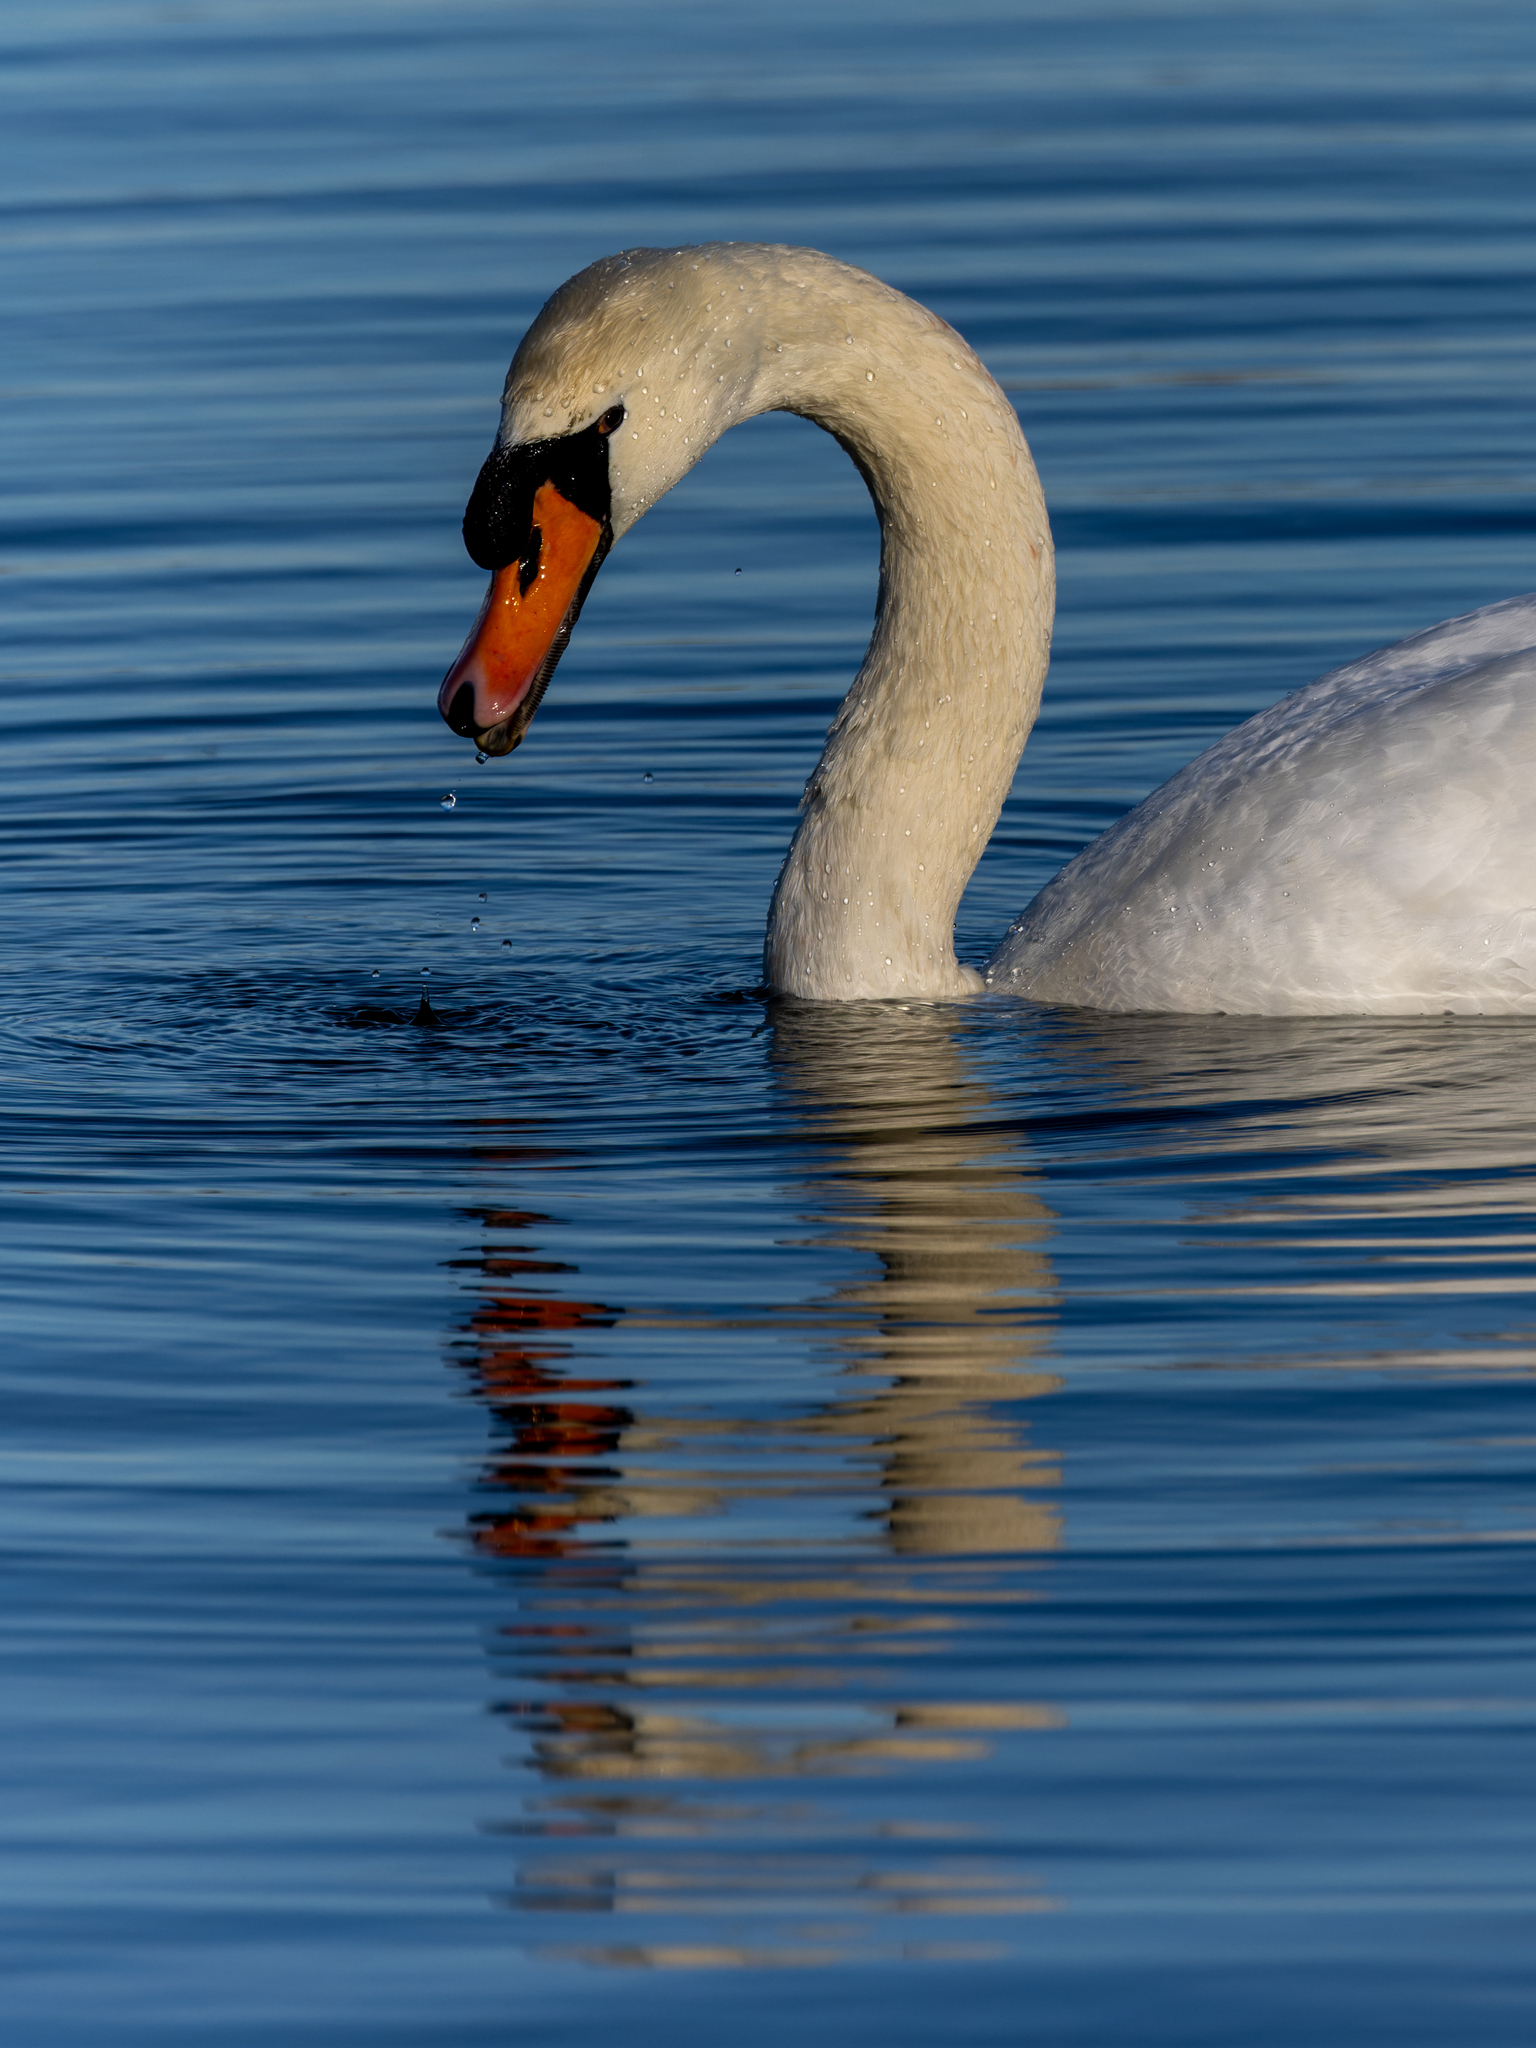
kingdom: Animalia
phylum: Chordata
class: Aves
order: Anseriformes
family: Anatidae
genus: Cygnus
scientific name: Cygnus olor
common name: Mute swan
